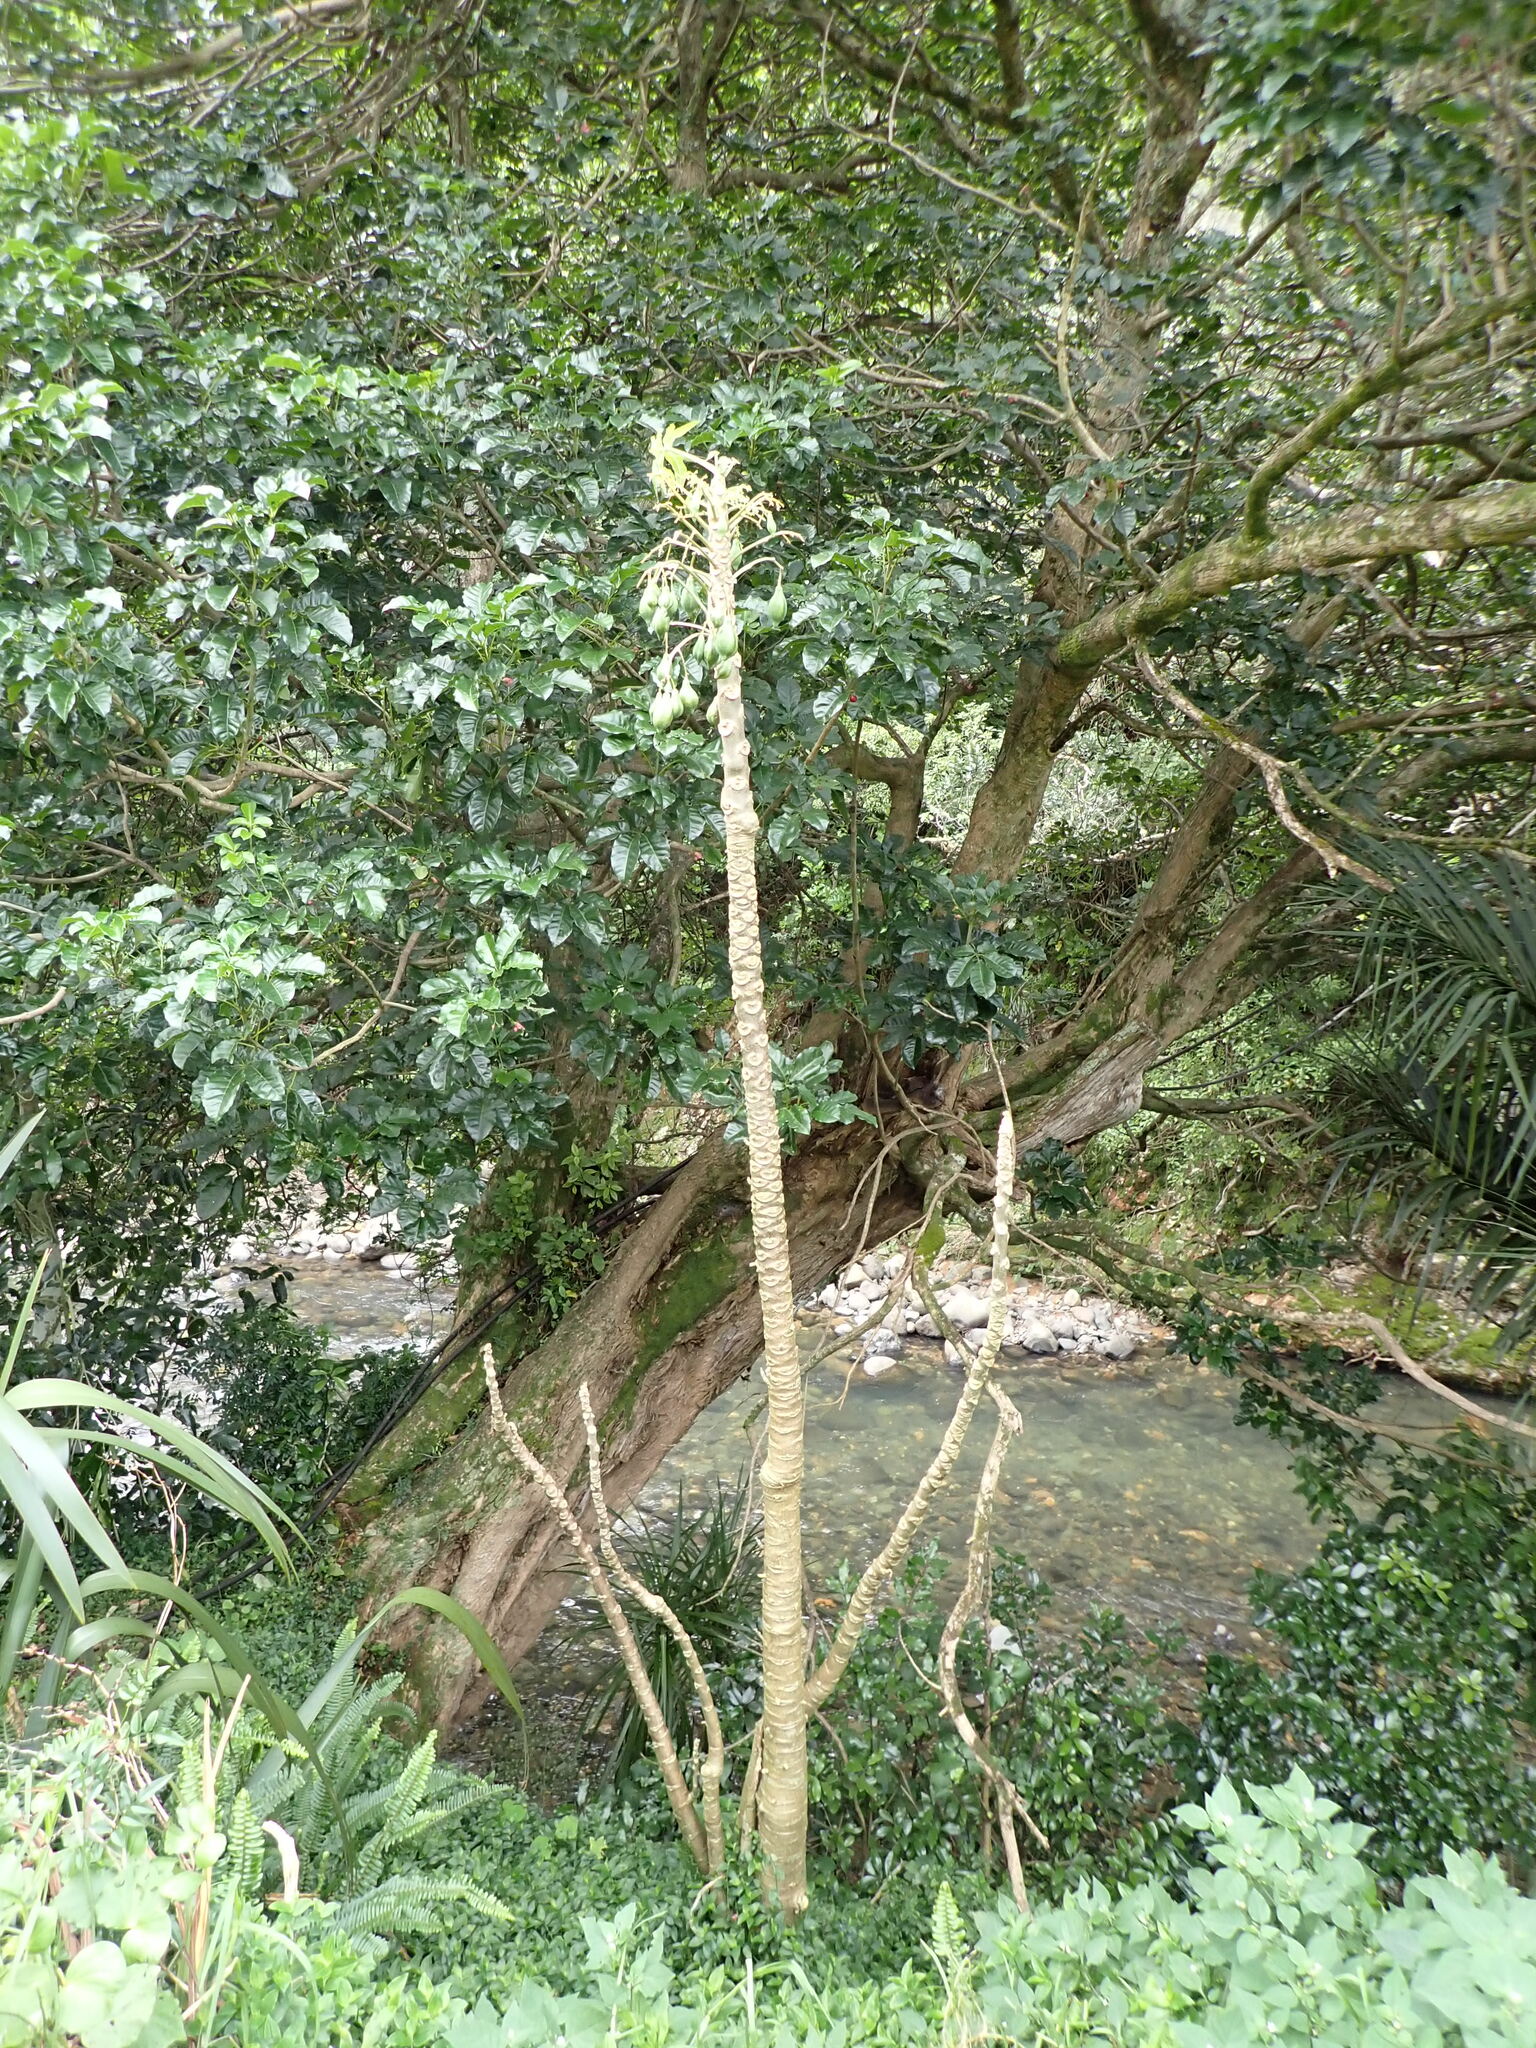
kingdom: Plantae
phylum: Tracheophyta
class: Magnoliopsida
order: Brassicales
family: Caricaceae
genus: Vasconcellea
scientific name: Vasconcellea pubescens
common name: Mountain papaya
